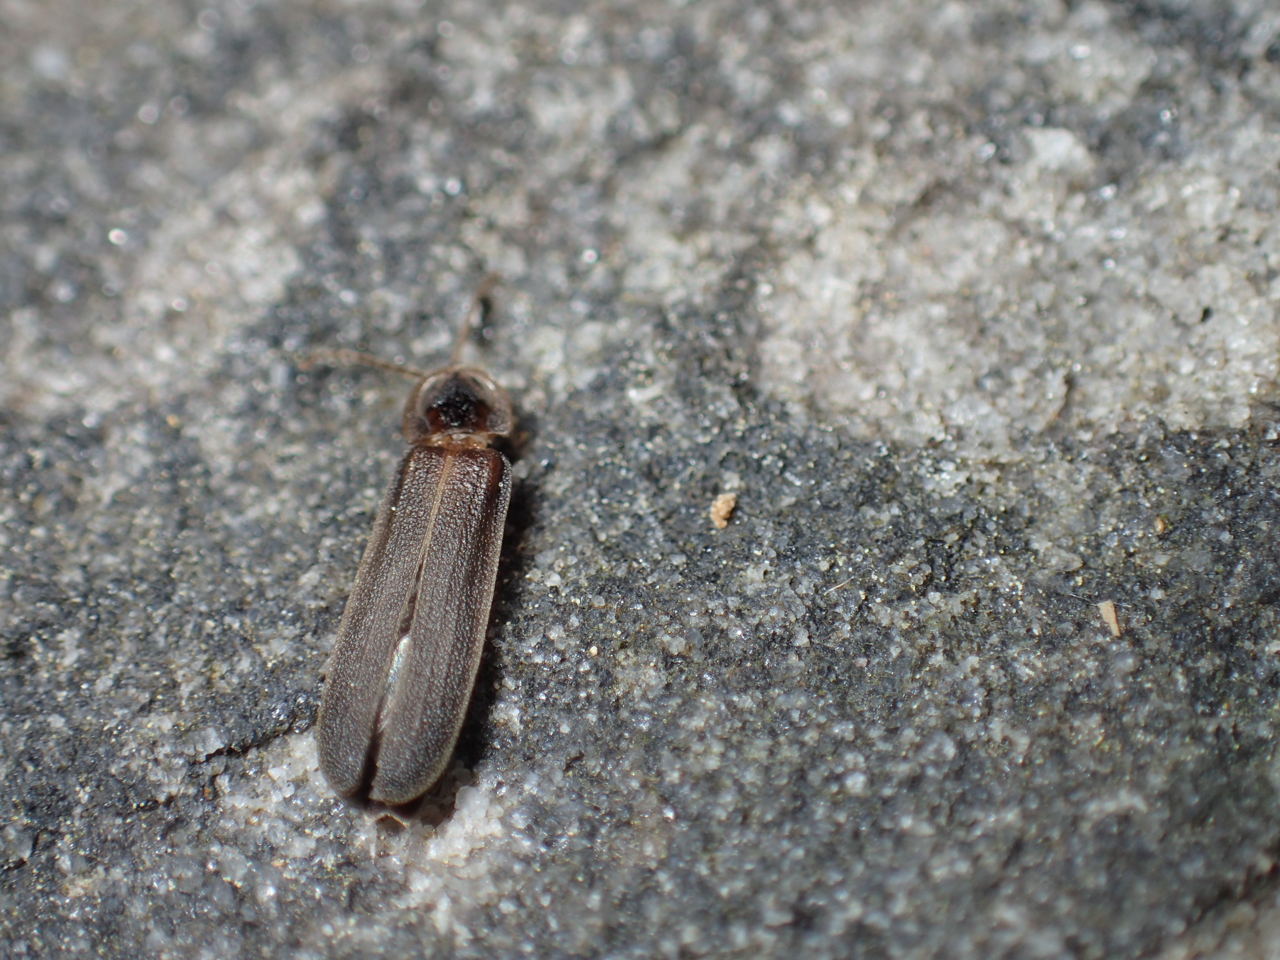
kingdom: Animalia
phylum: Arthropoda
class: Insecta
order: Coleoptera
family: Lampyridae
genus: Phausis
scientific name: Phausis reticulata
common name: Blue ghost firefly
